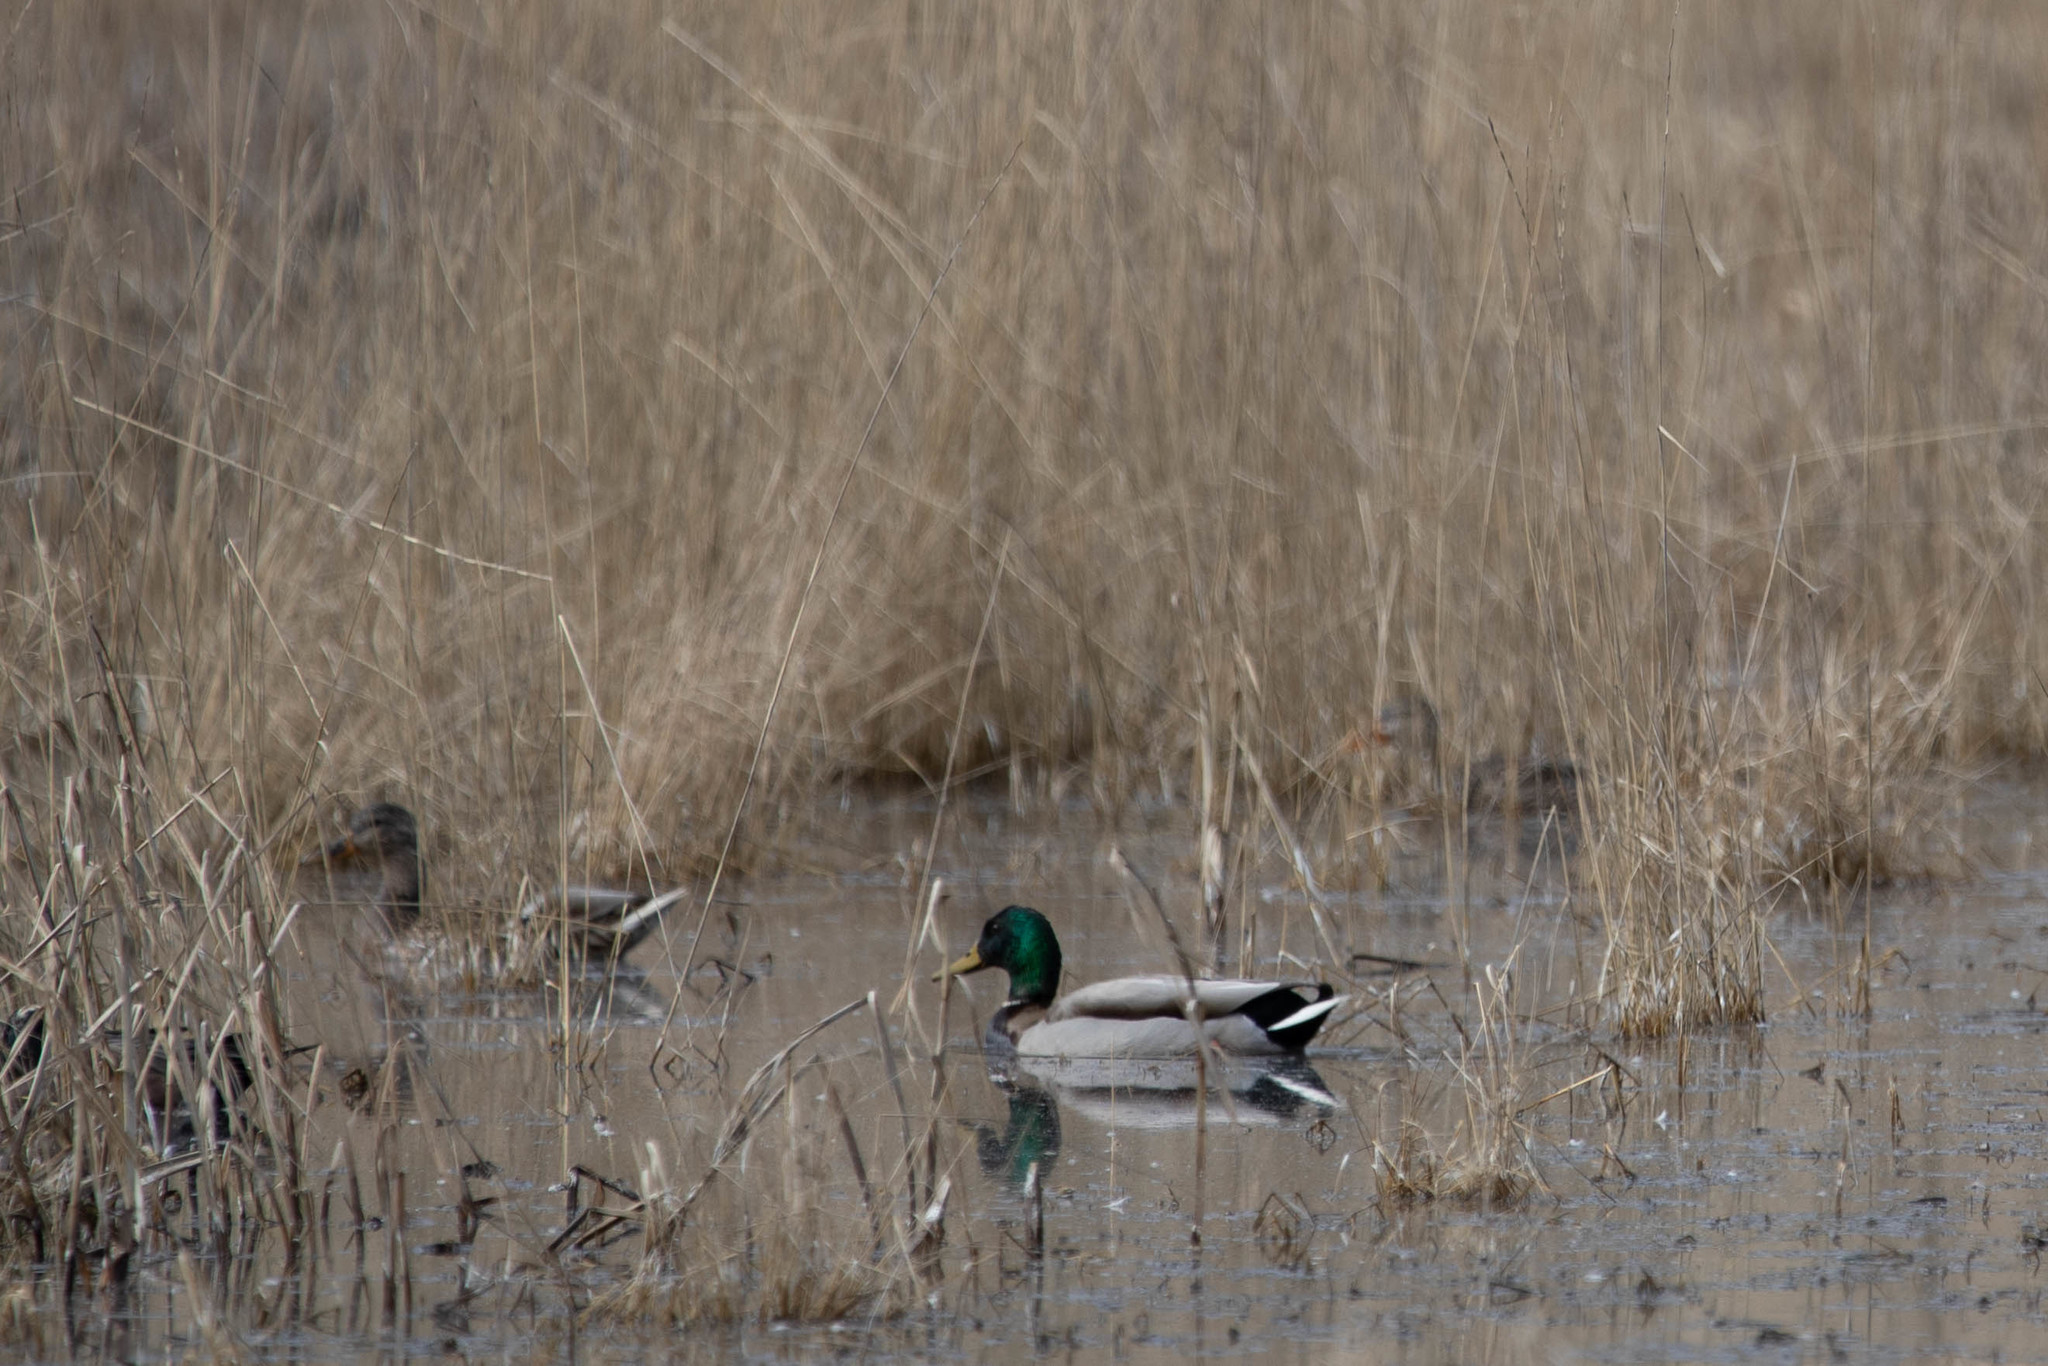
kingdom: Animalia
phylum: Chordata
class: Aves
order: Anseriformes
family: Anatidae
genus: Anas
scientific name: Anas platyrhynchos
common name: Mallard
